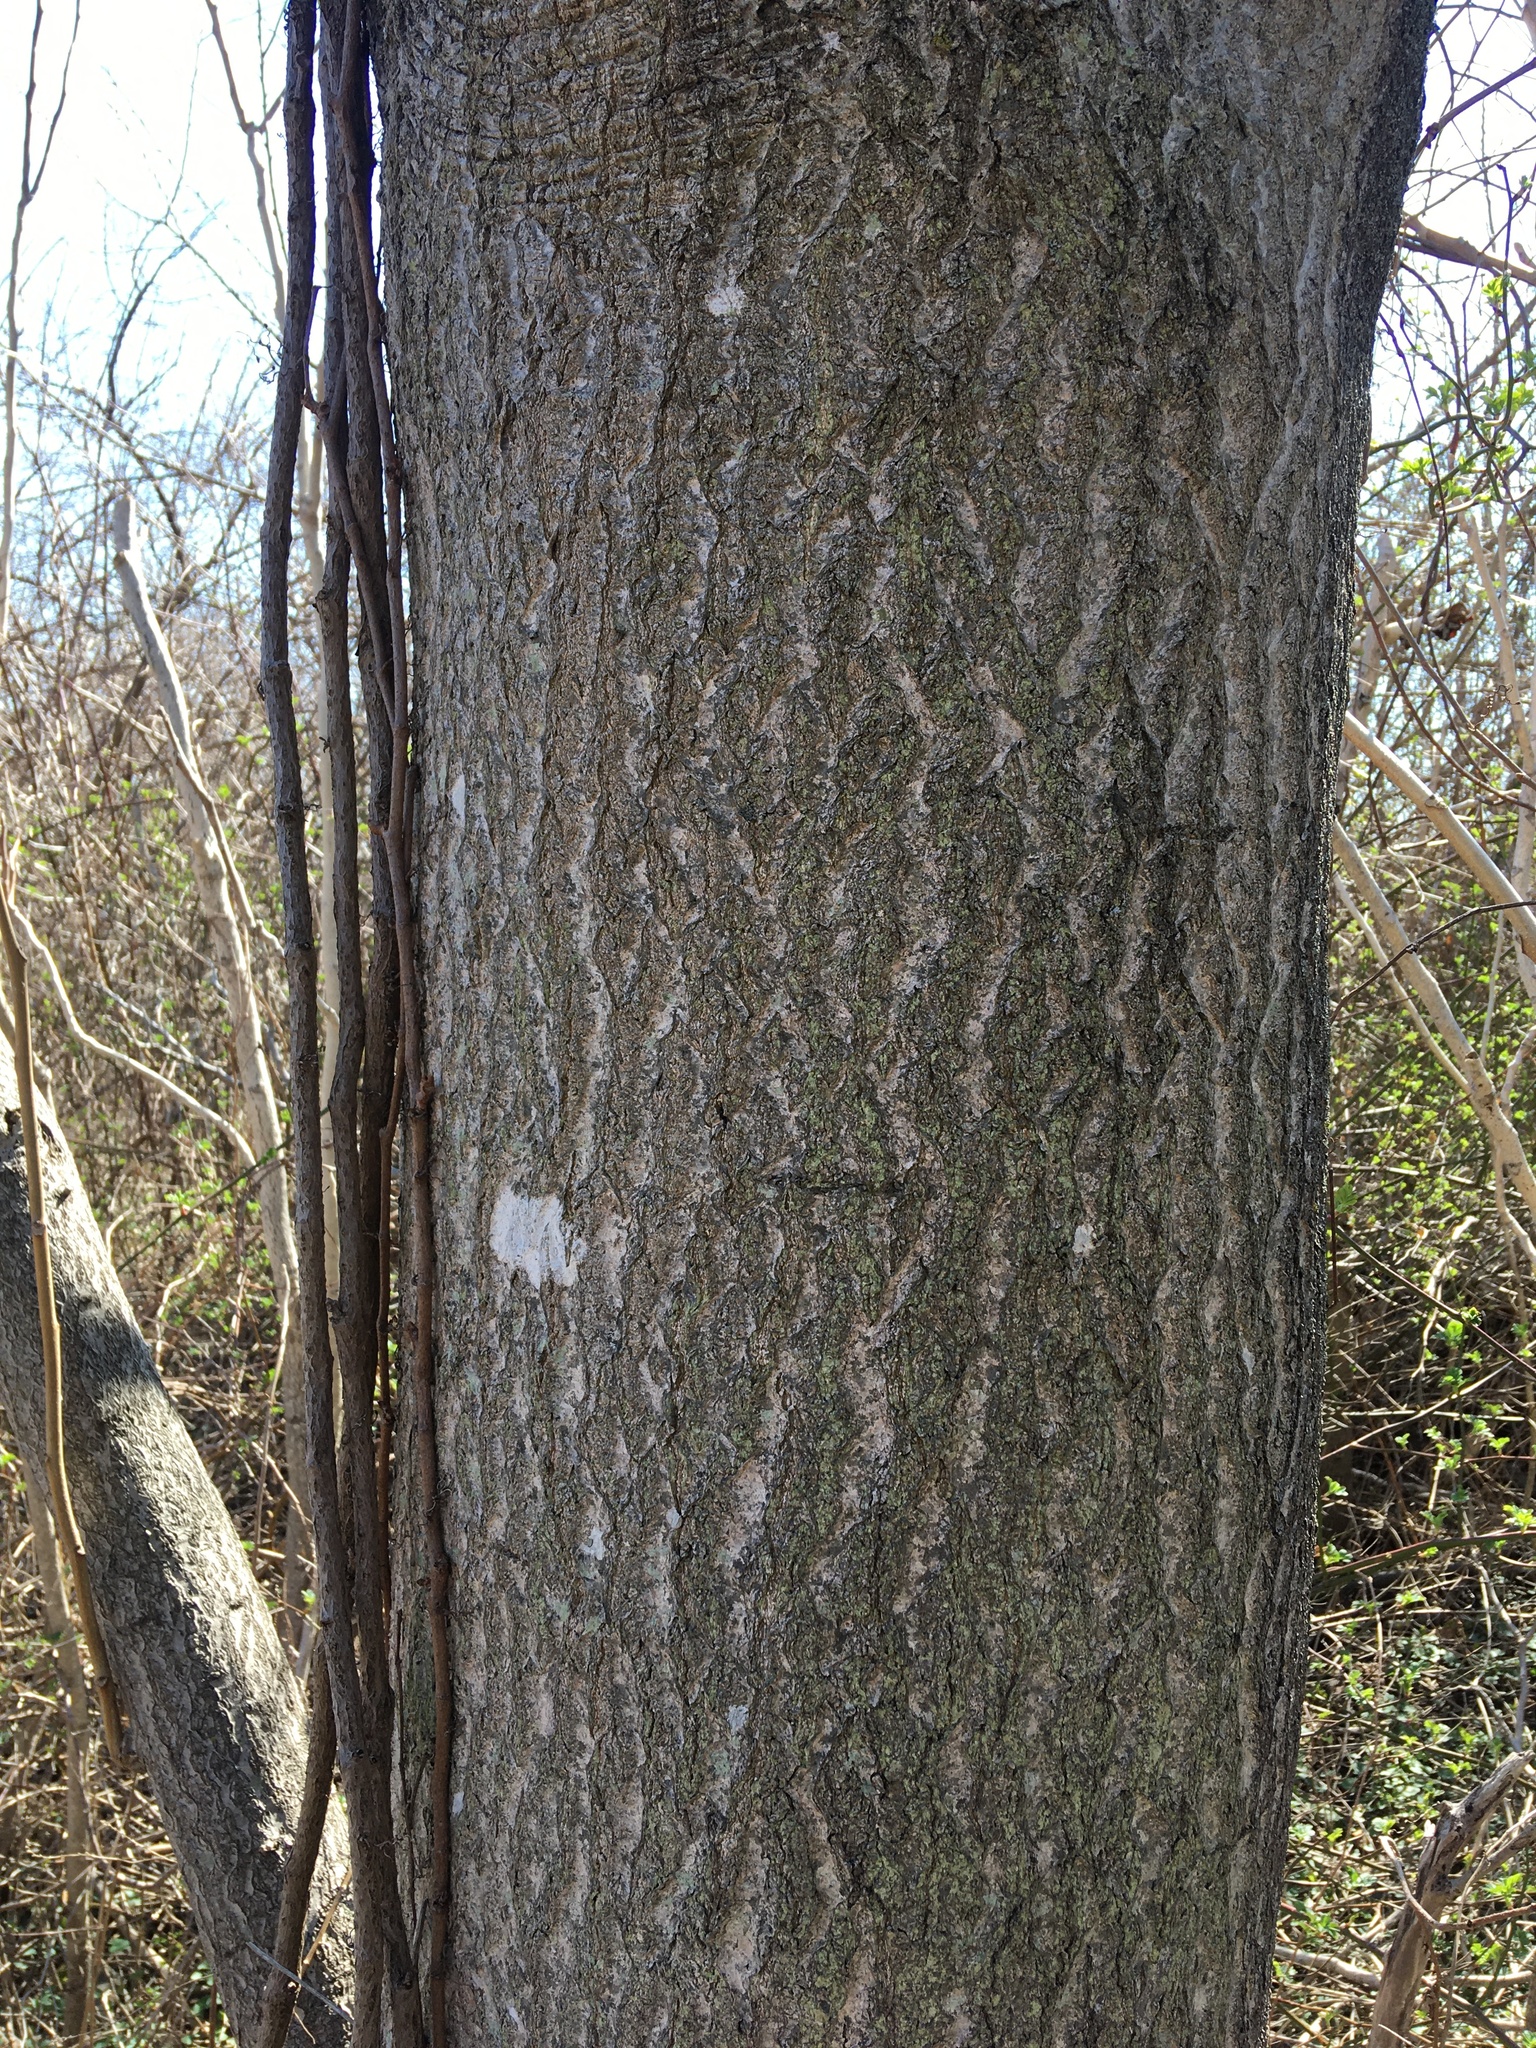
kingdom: Plantae
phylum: Tracheophyta
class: Magnoliopsida
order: Sapindales
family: Simaroubaceae
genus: Ailanthus
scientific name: Ailanthus altissima
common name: Tree-of-heaven
